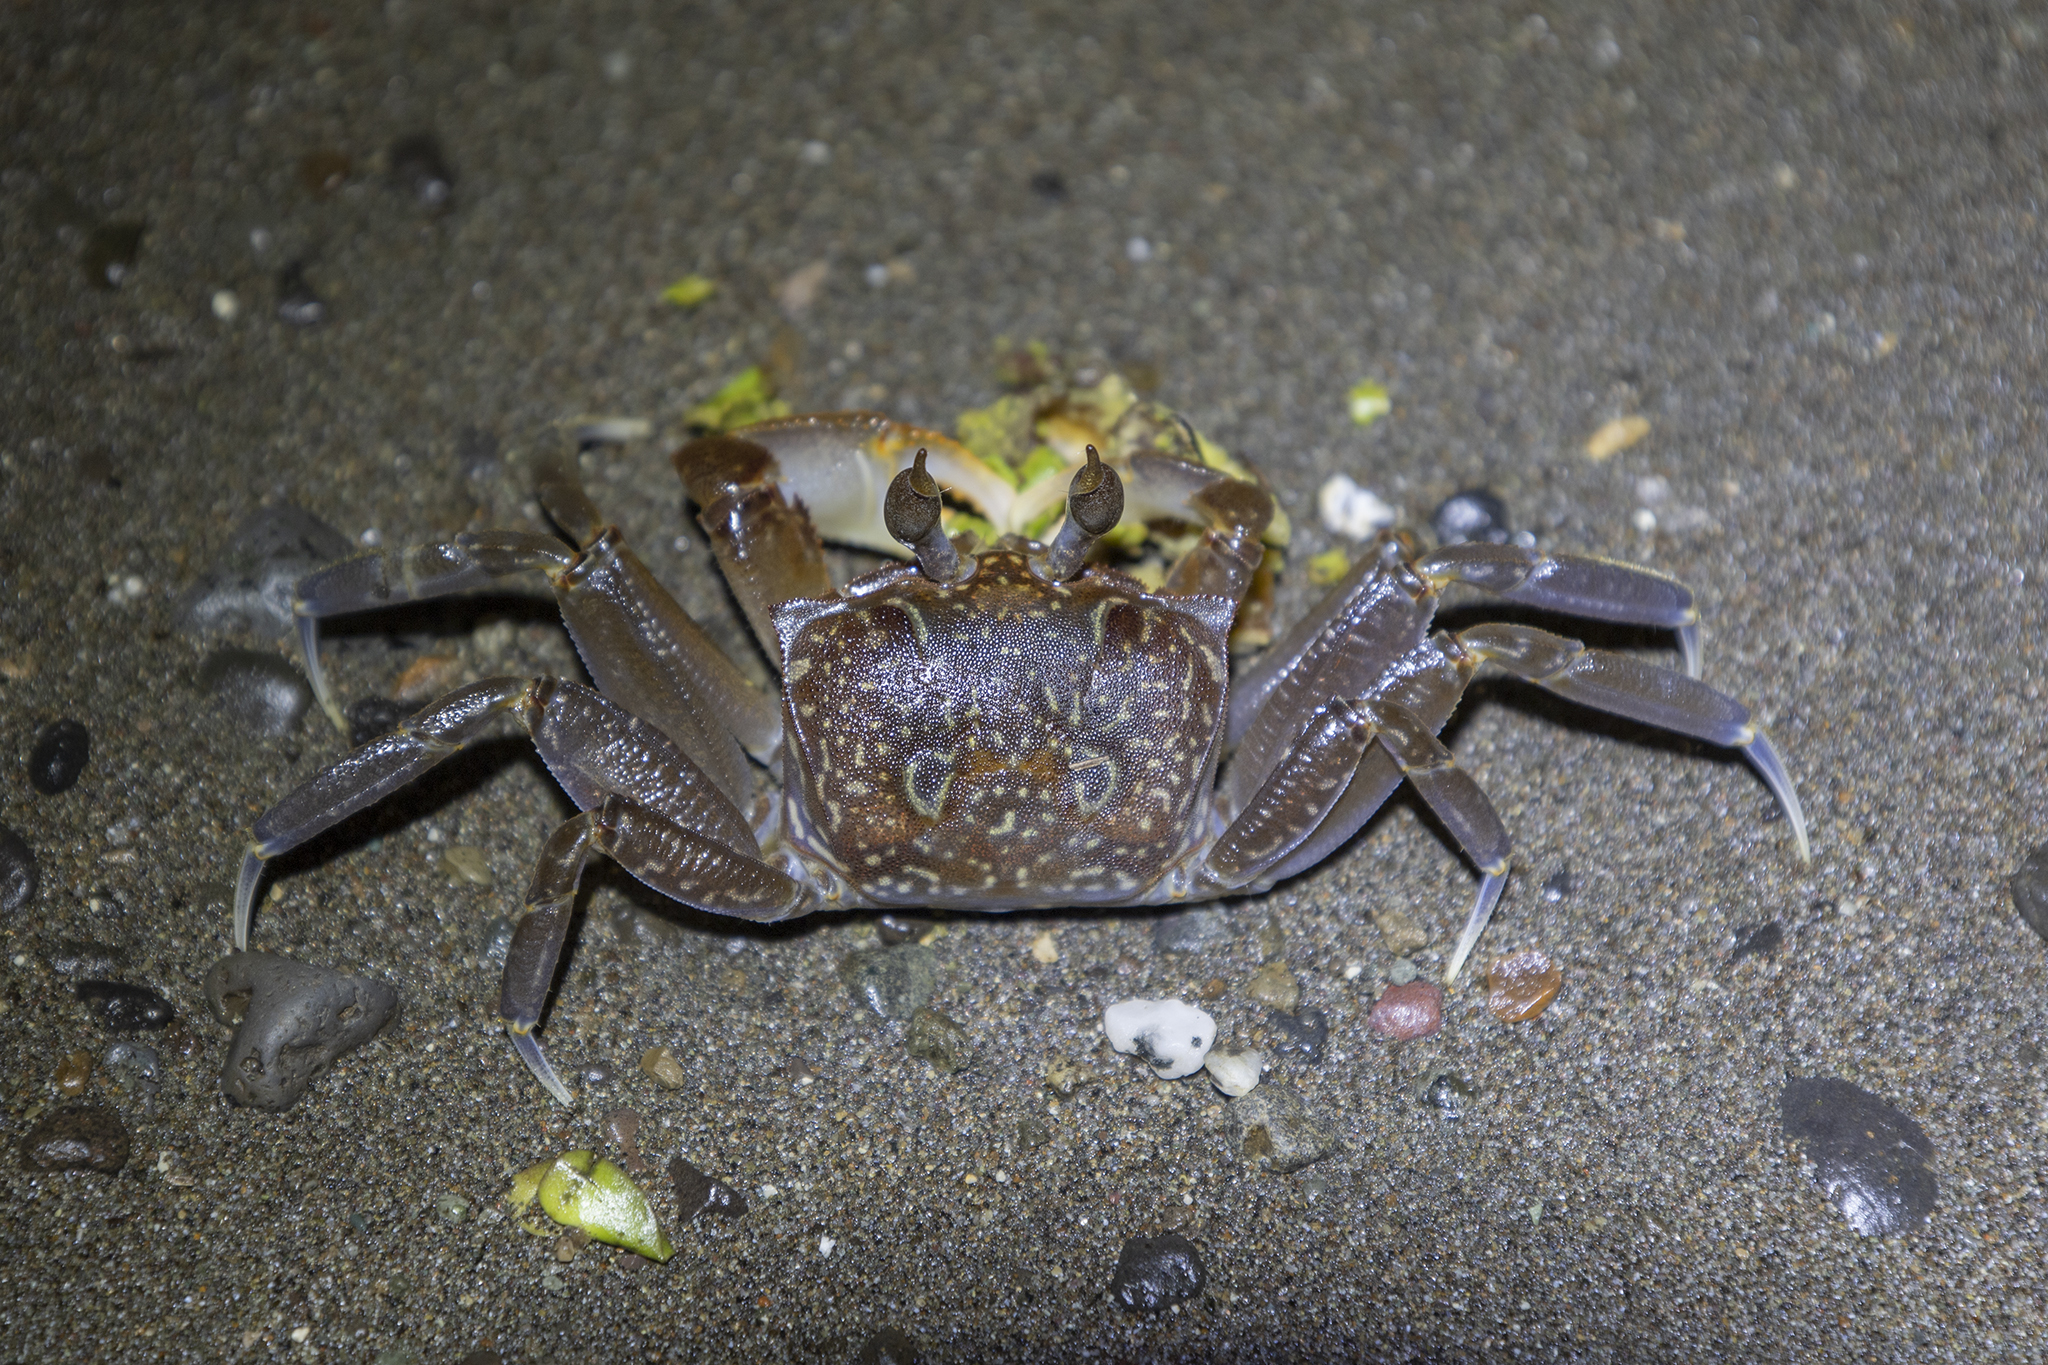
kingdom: Animalia
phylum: Arthropoda
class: Malacostraca
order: Decapoda
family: Ocypodidae
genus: Ocypode
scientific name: Ocypode gaudichaudii
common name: Pacific ghost crab
